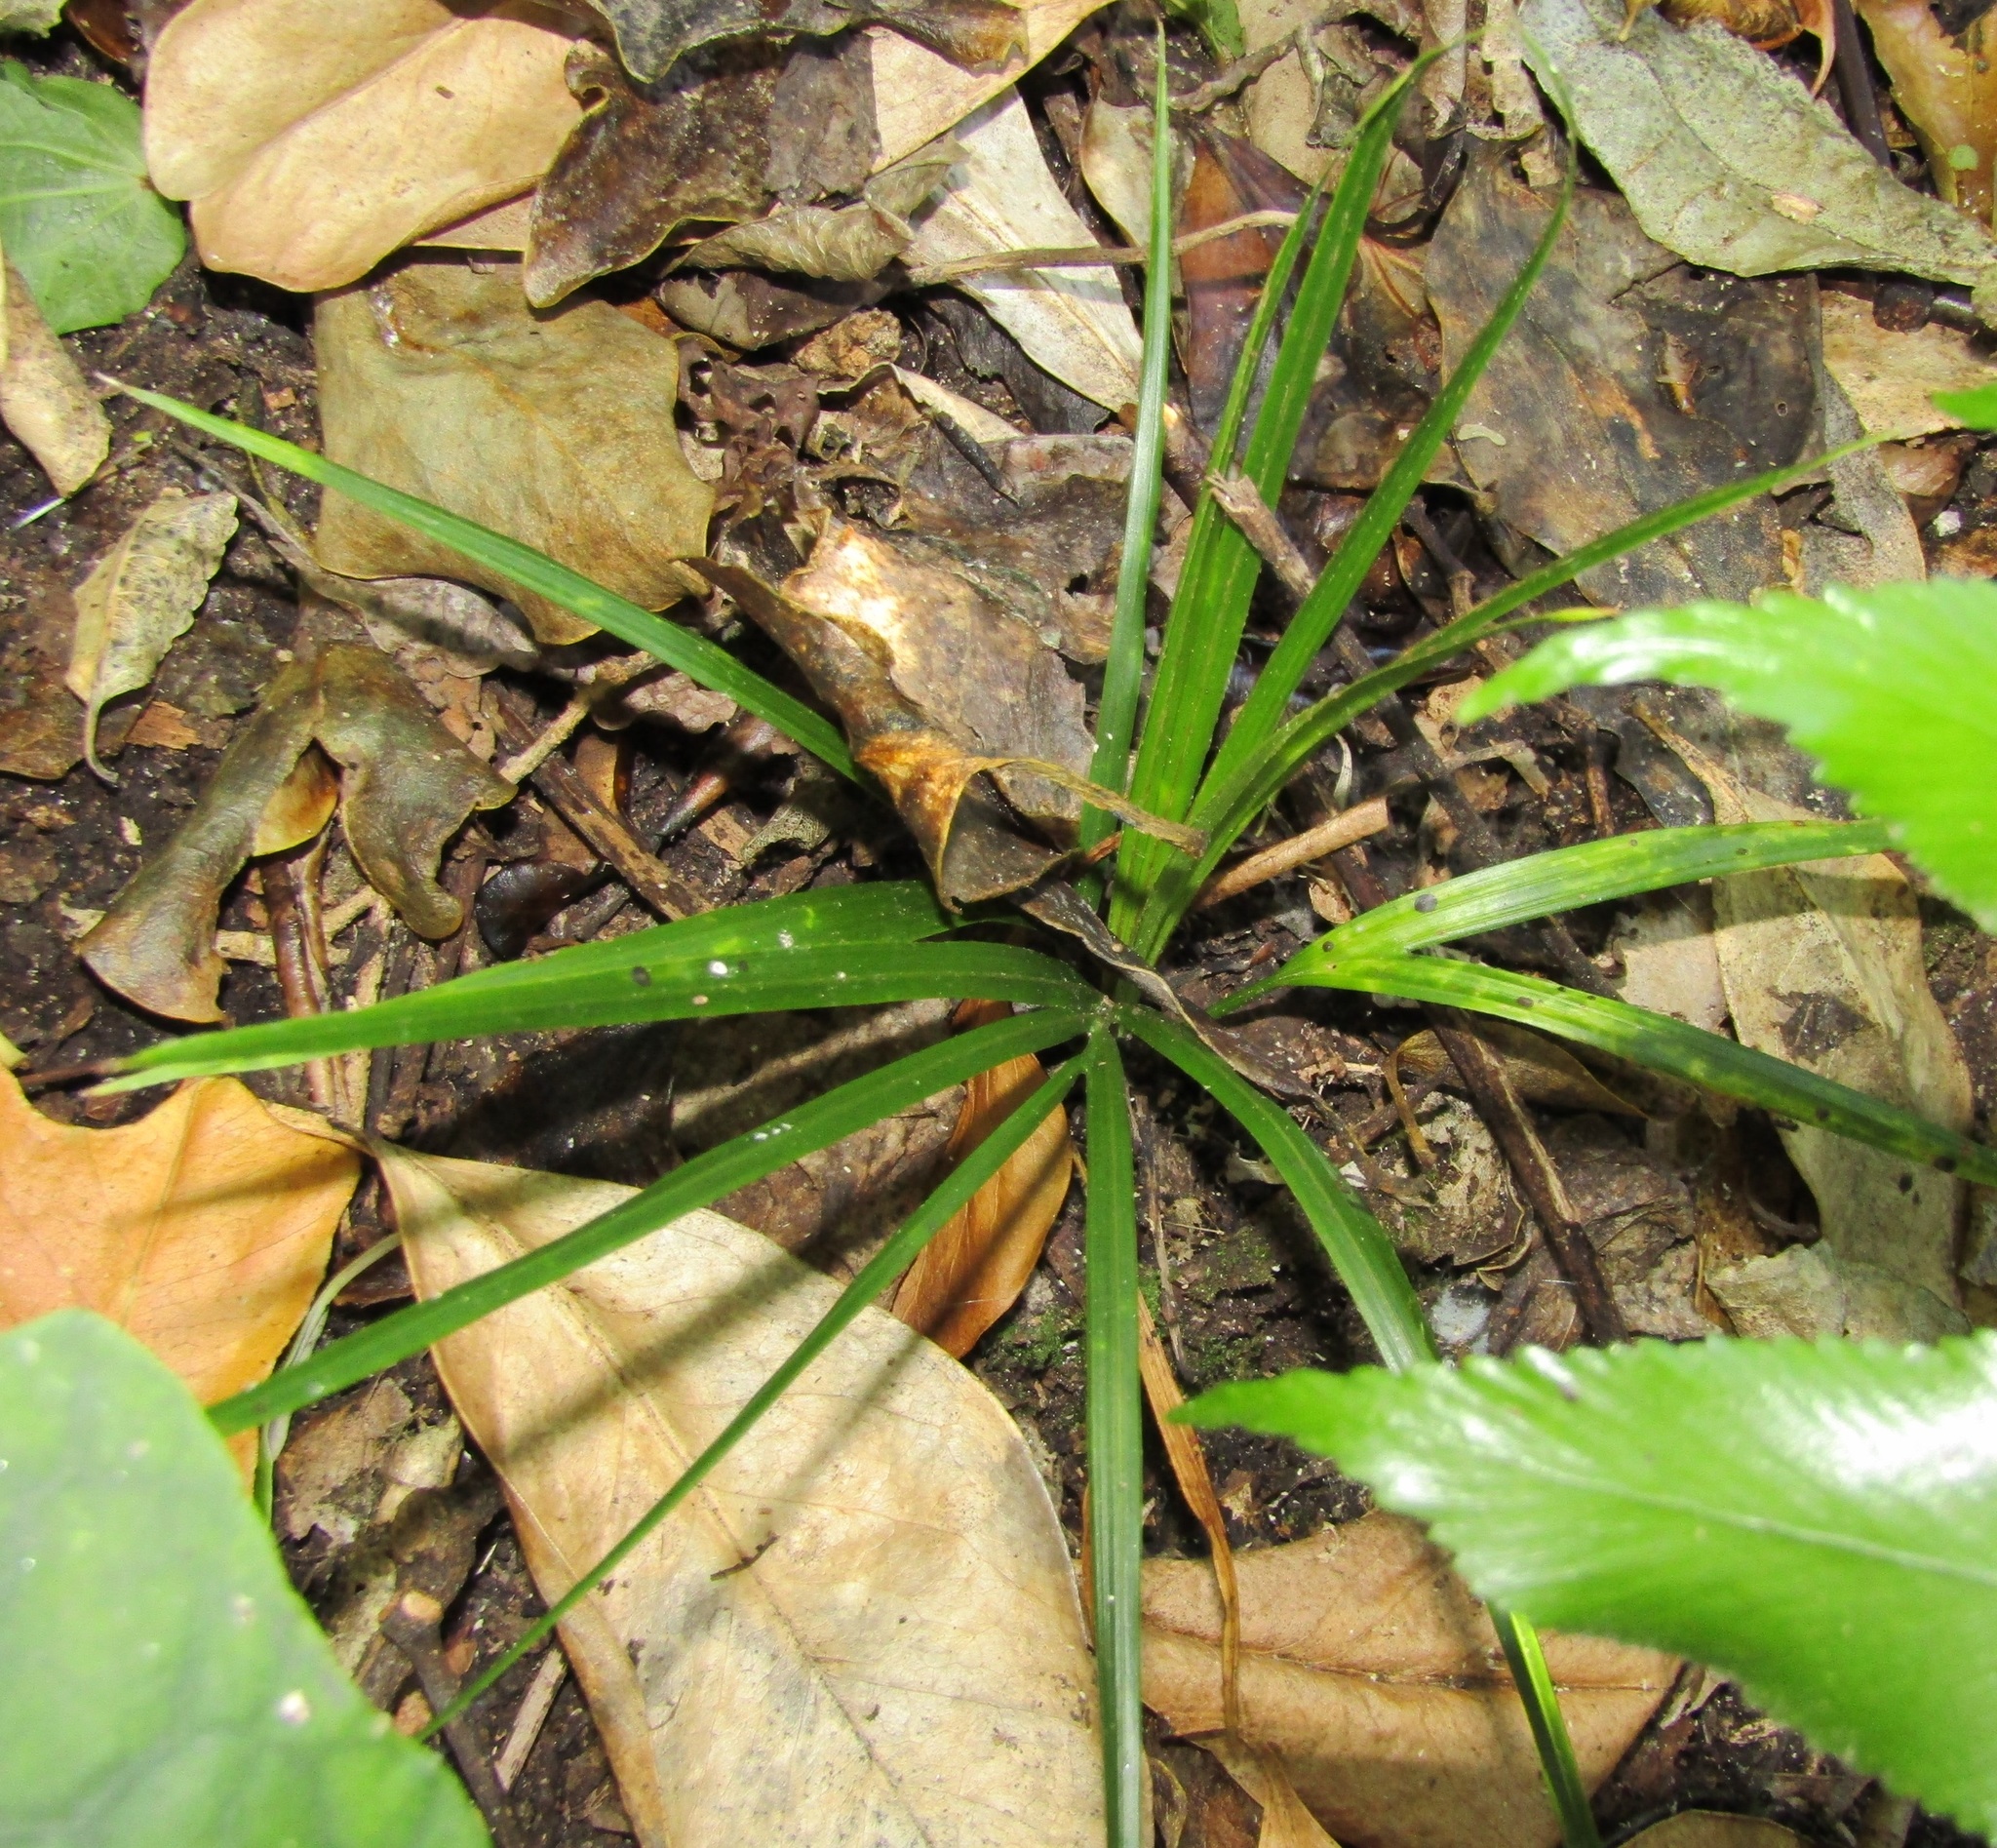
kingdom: Plantae
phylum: Tracheophyta
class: Liliopsida
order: Arecales
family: Arecaceae
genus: Rhopalostylis
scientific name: Rhopalostylis sapida
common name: Feather-duster palm
